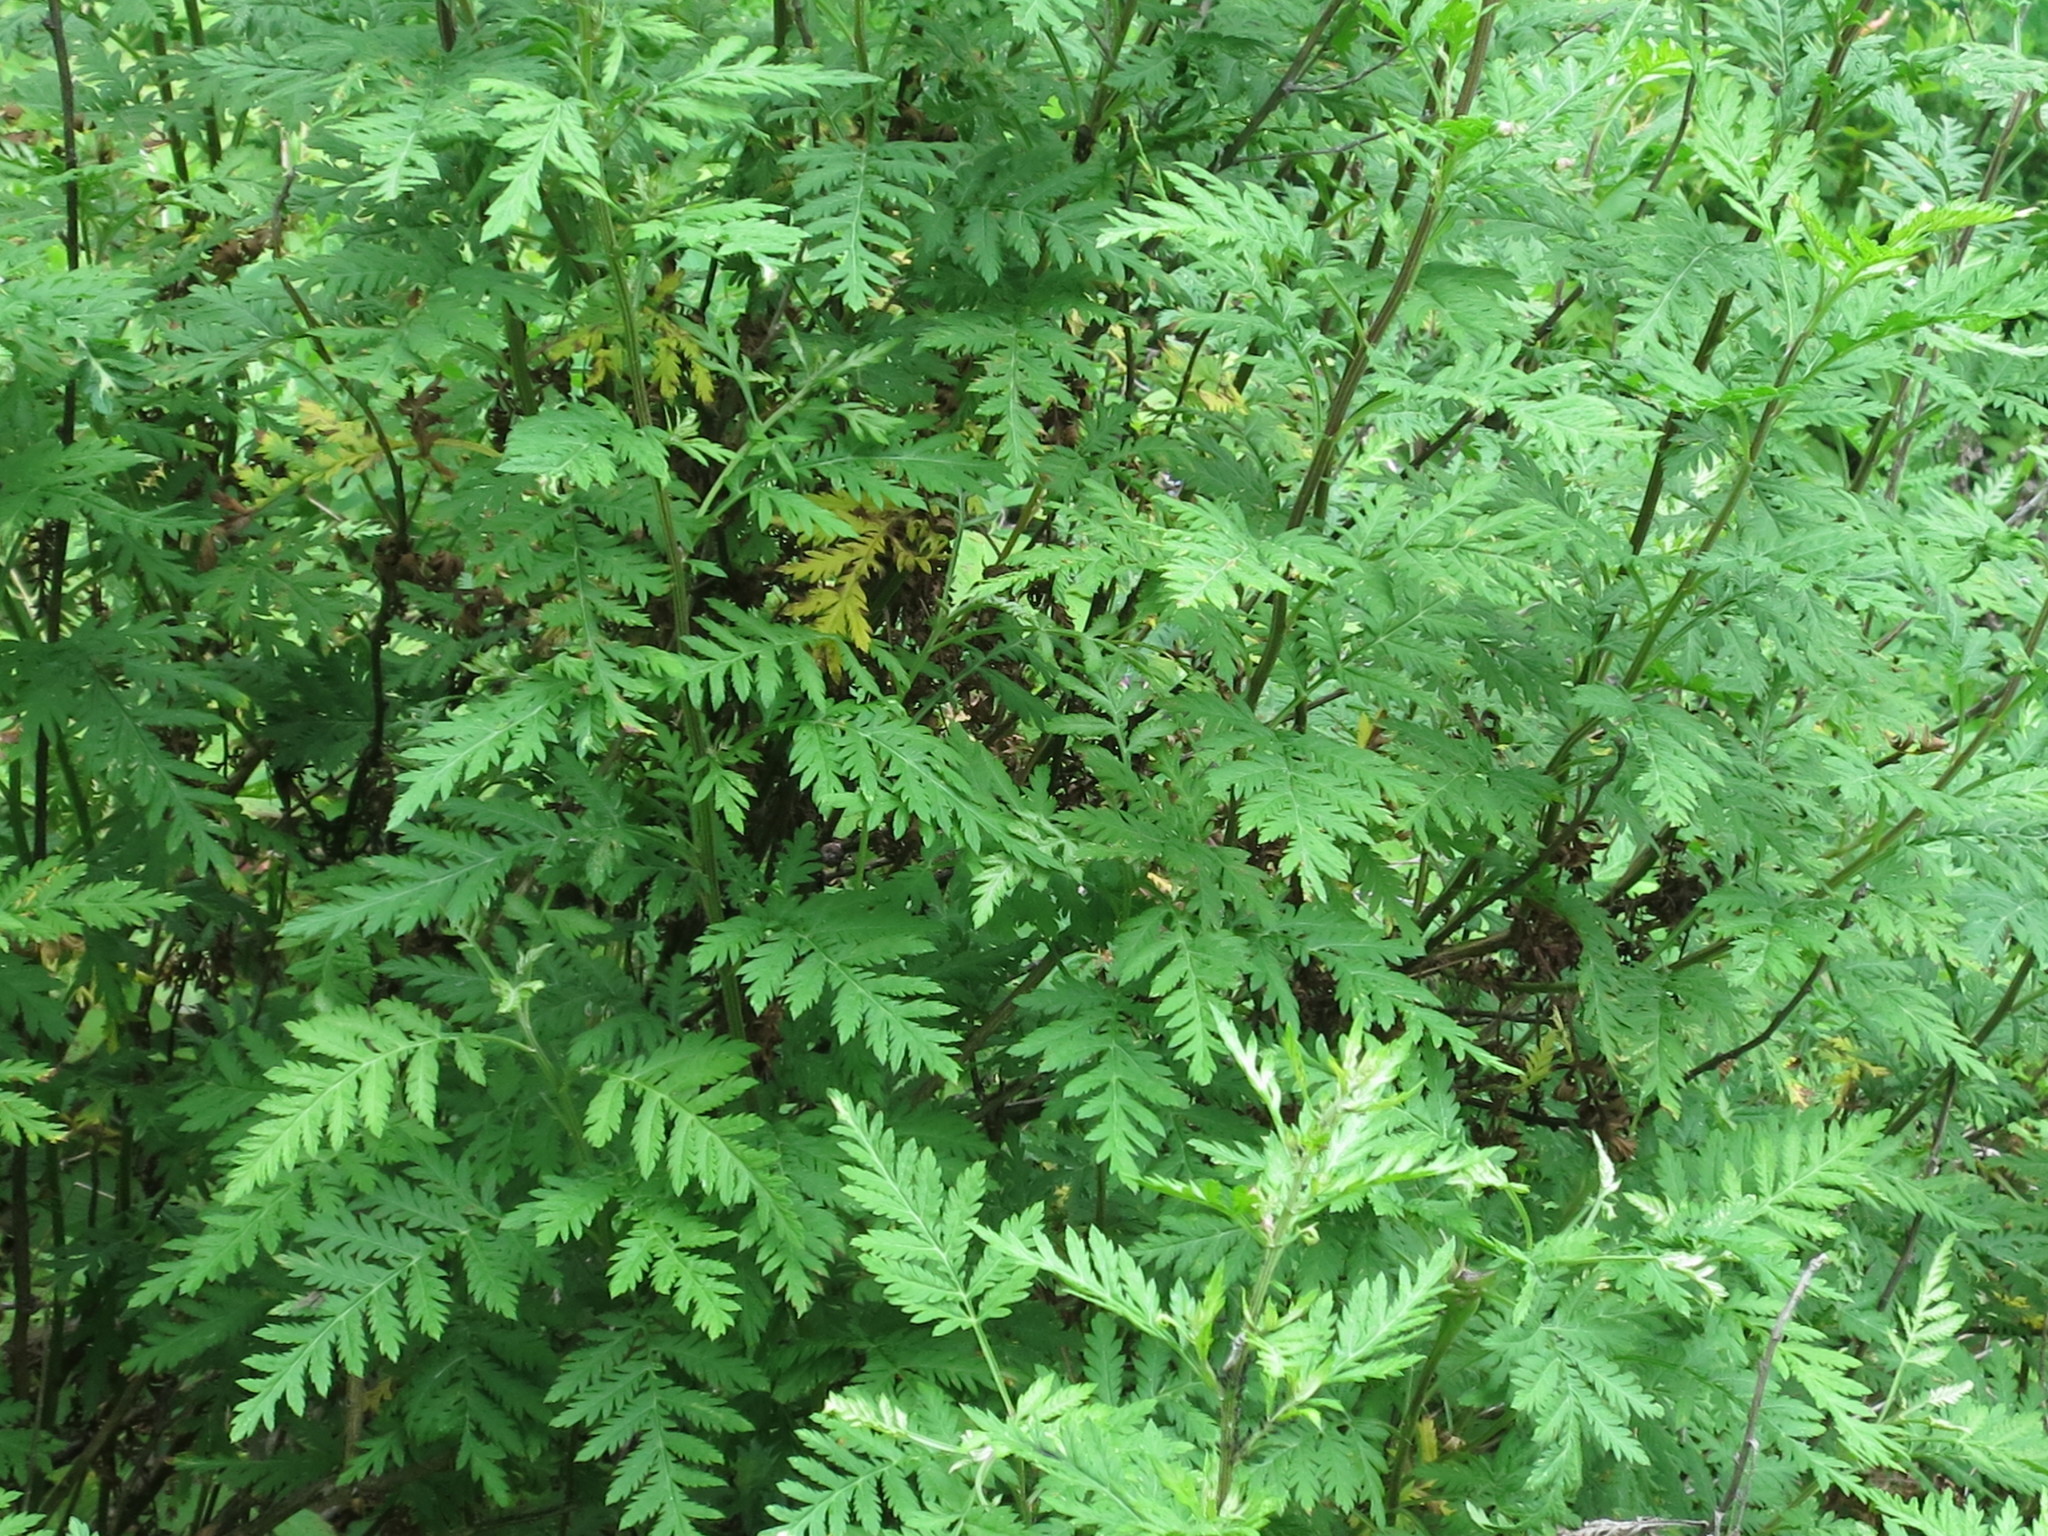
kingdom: Plantae
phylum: Tracheophyta
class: Magnoliopsida
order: Asterales
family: Asteraceae
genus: Artemisia
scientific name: Artemisia gmelinii
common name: Gmelin's wormwood
